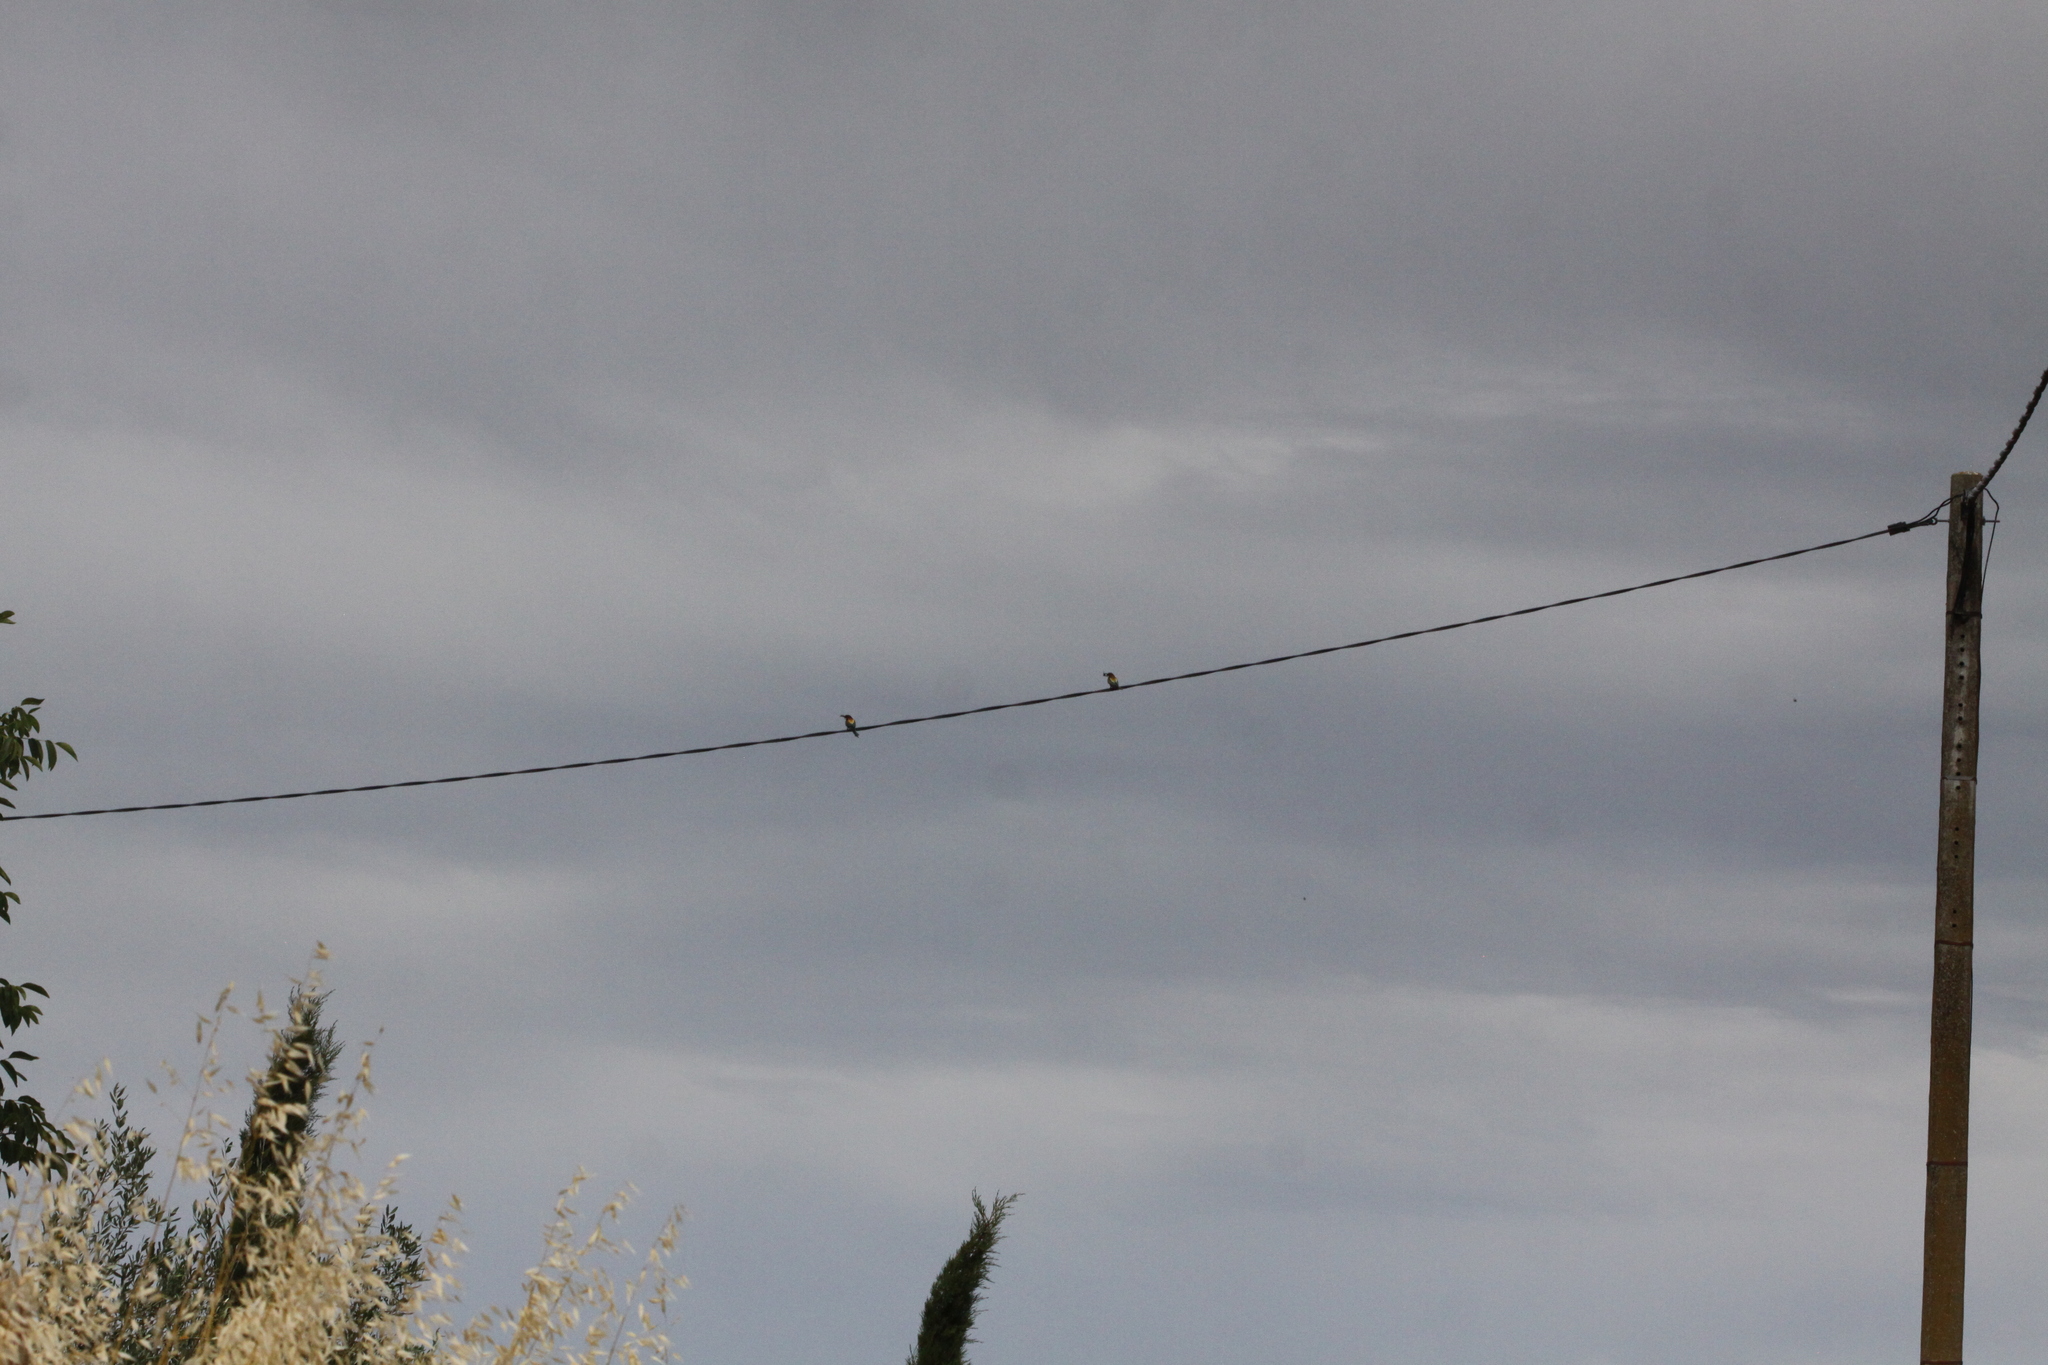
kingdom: Animalia
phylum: Chordata
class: Aves
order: Coraciiformes
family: Meropidae
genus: Merops
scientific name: Merops apiaster
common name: European bee-eater
